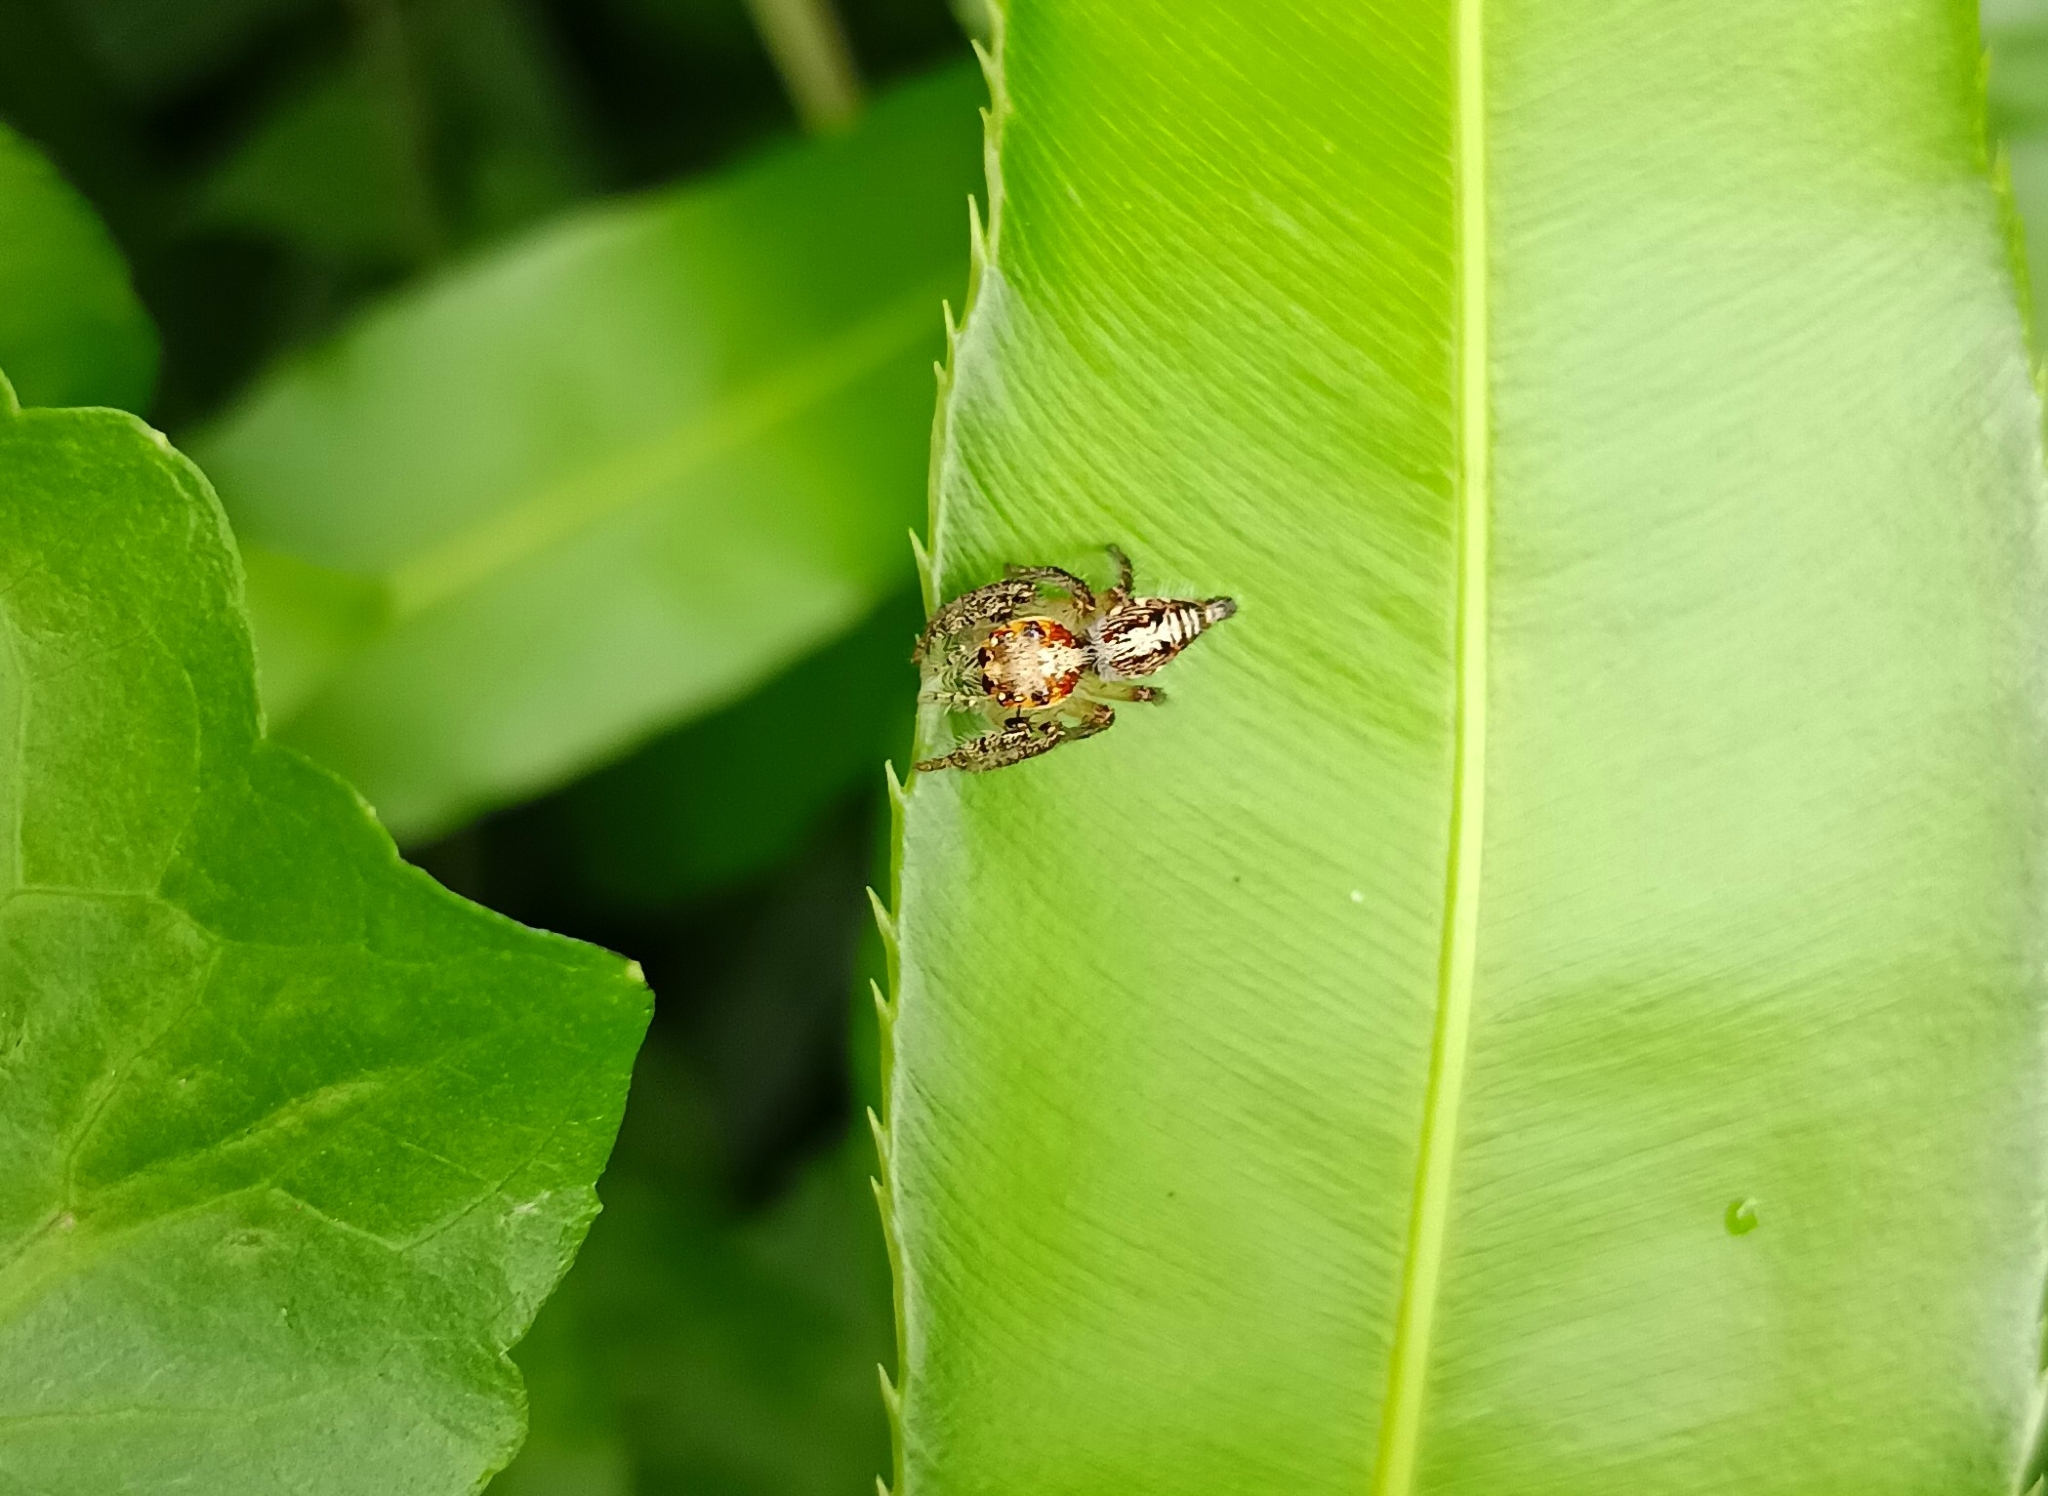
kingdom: Animalia
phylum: Arthropoda
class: Arachnida
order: Araneae
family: Salticidae
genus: Hyllus
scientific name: Hyllus semicupreus
